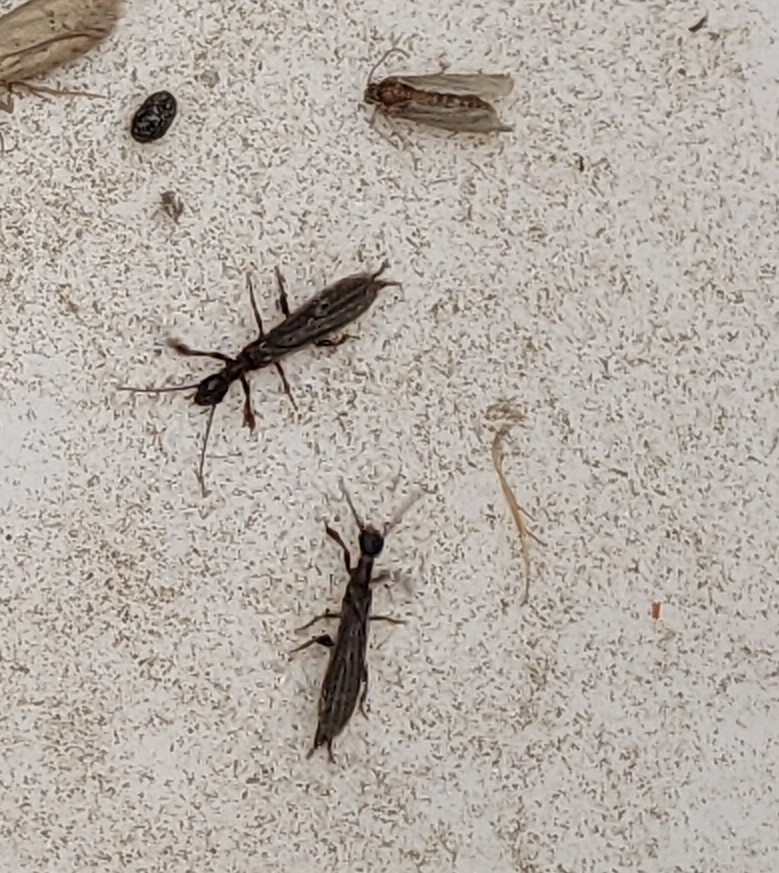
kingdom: Animalia
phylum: Arthropoda
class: Insecta
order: Embioptera
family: Oligotomidae
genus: Oligotoma
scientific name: Oligotoma nigra
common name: Black webspinner
